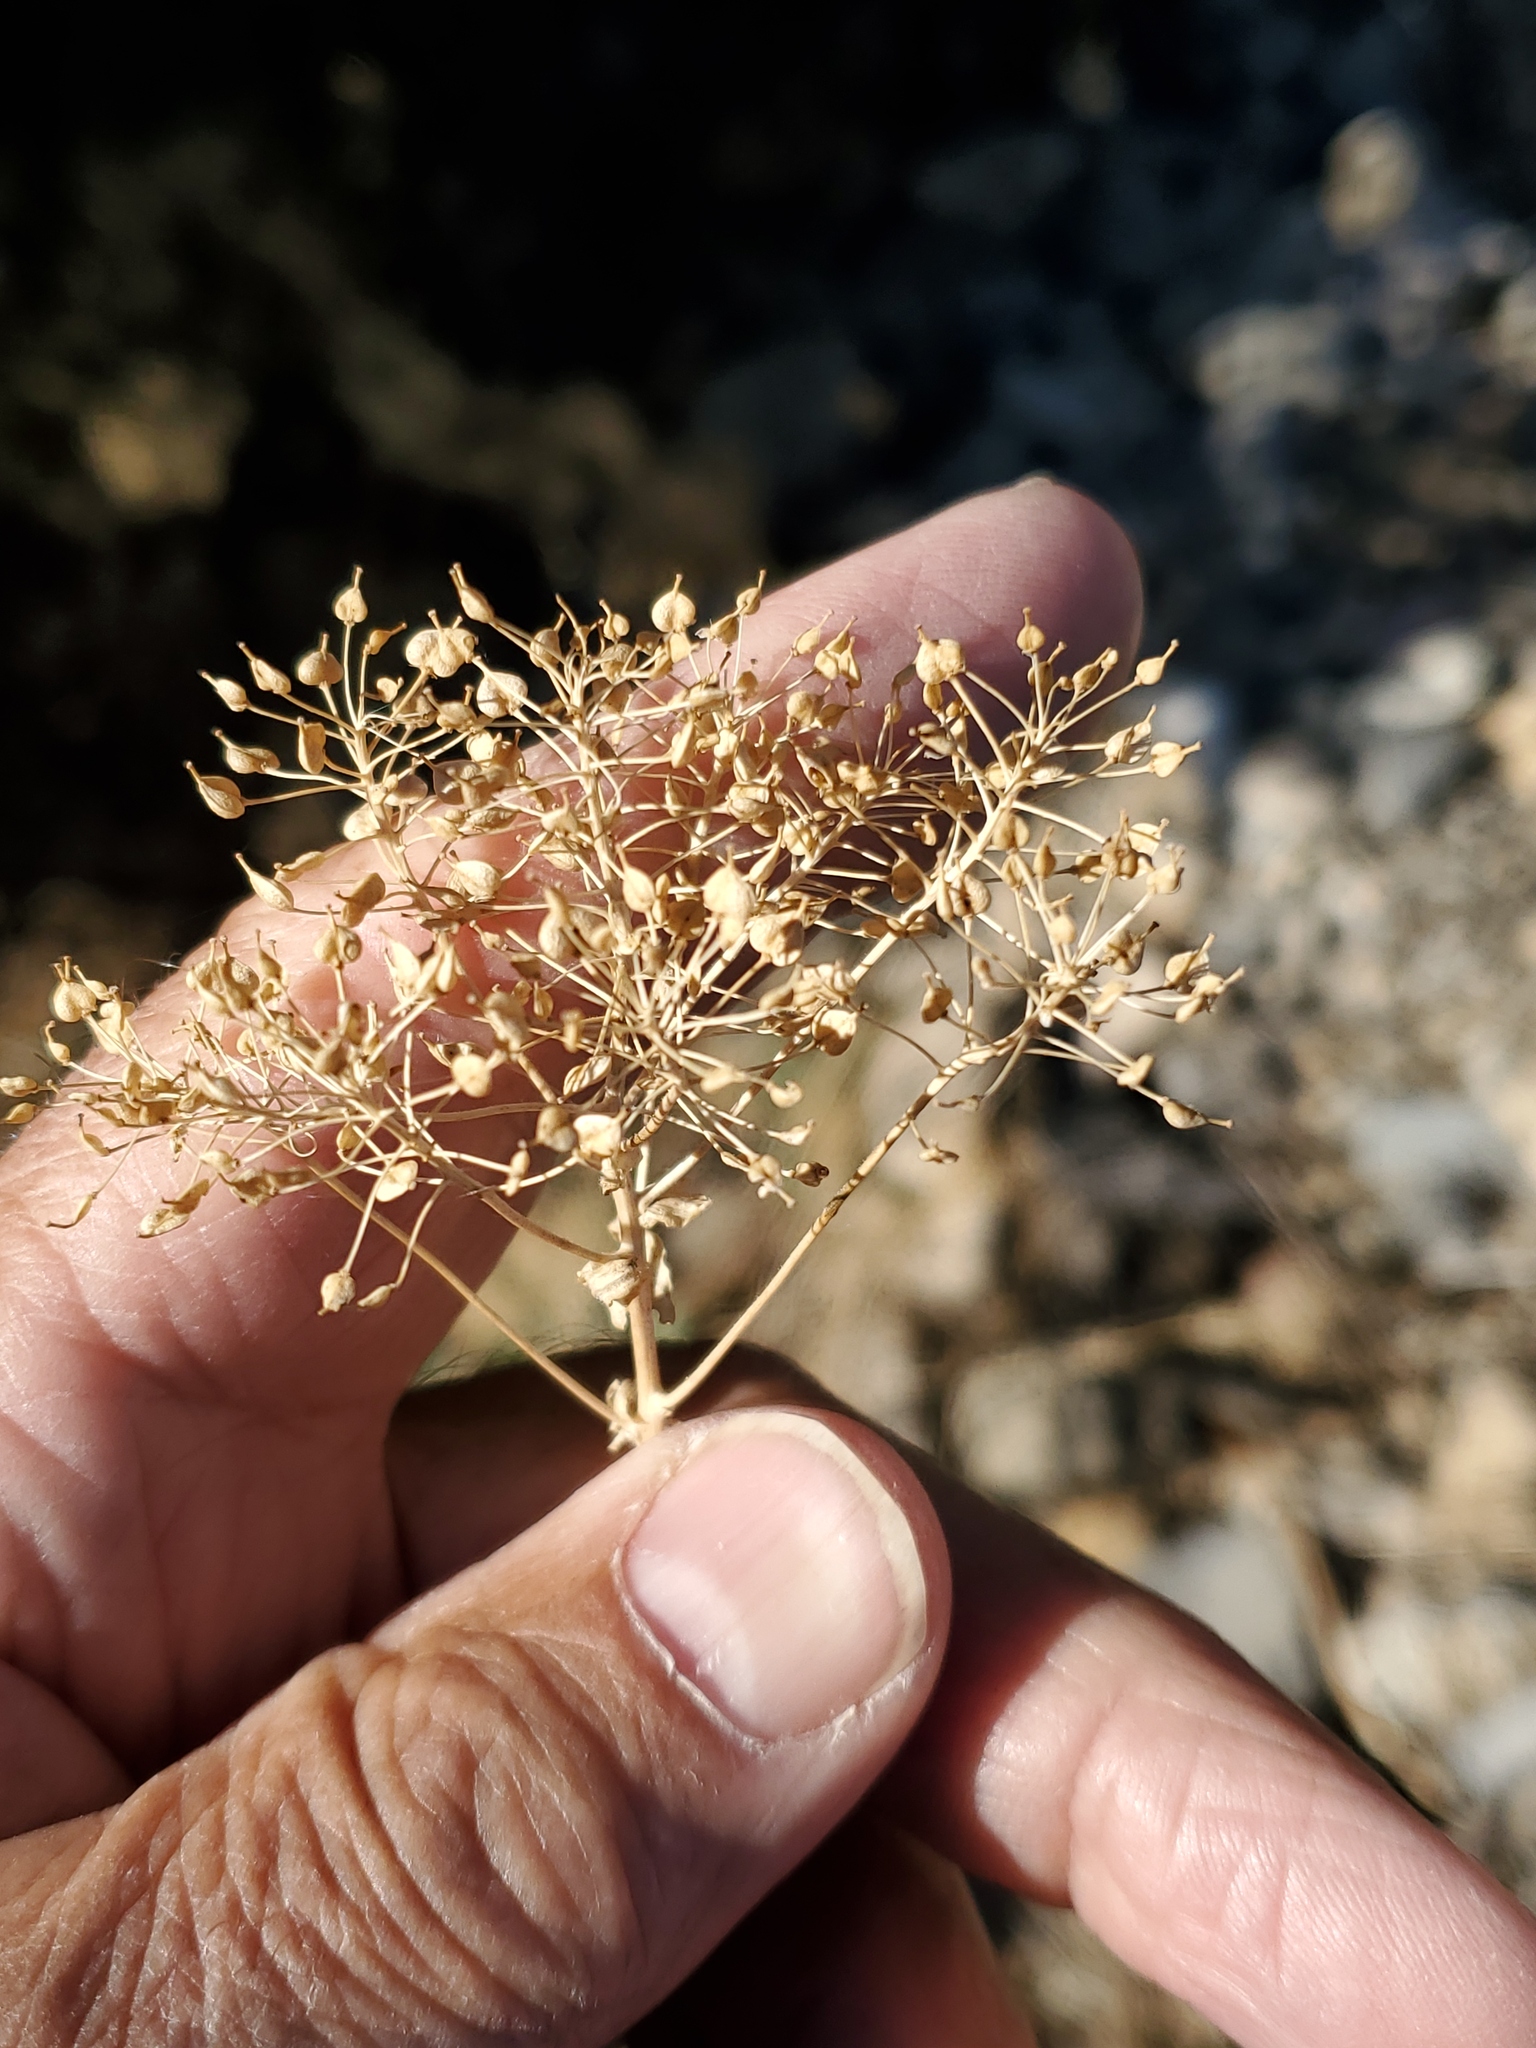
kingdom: Plantae
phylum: Tracheophyta
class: Magnoliopsida
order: Brassicales
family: Brassicaceae
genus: Lepidium
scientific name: Lepidium draba
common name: Hoary cress
